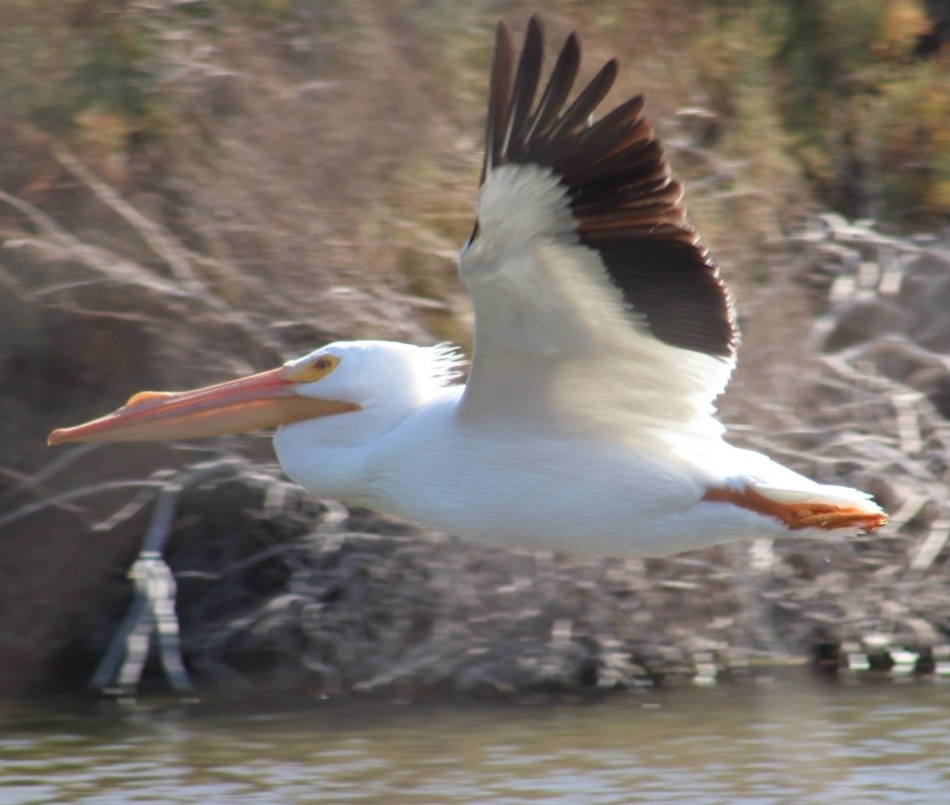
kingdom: Animalia
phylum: Chordata
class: Aves
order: Pelecaniformes
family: Pelecanidae
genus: Pelecanus
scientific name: Pelecanus erythrorhynchos
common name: American white pelican
